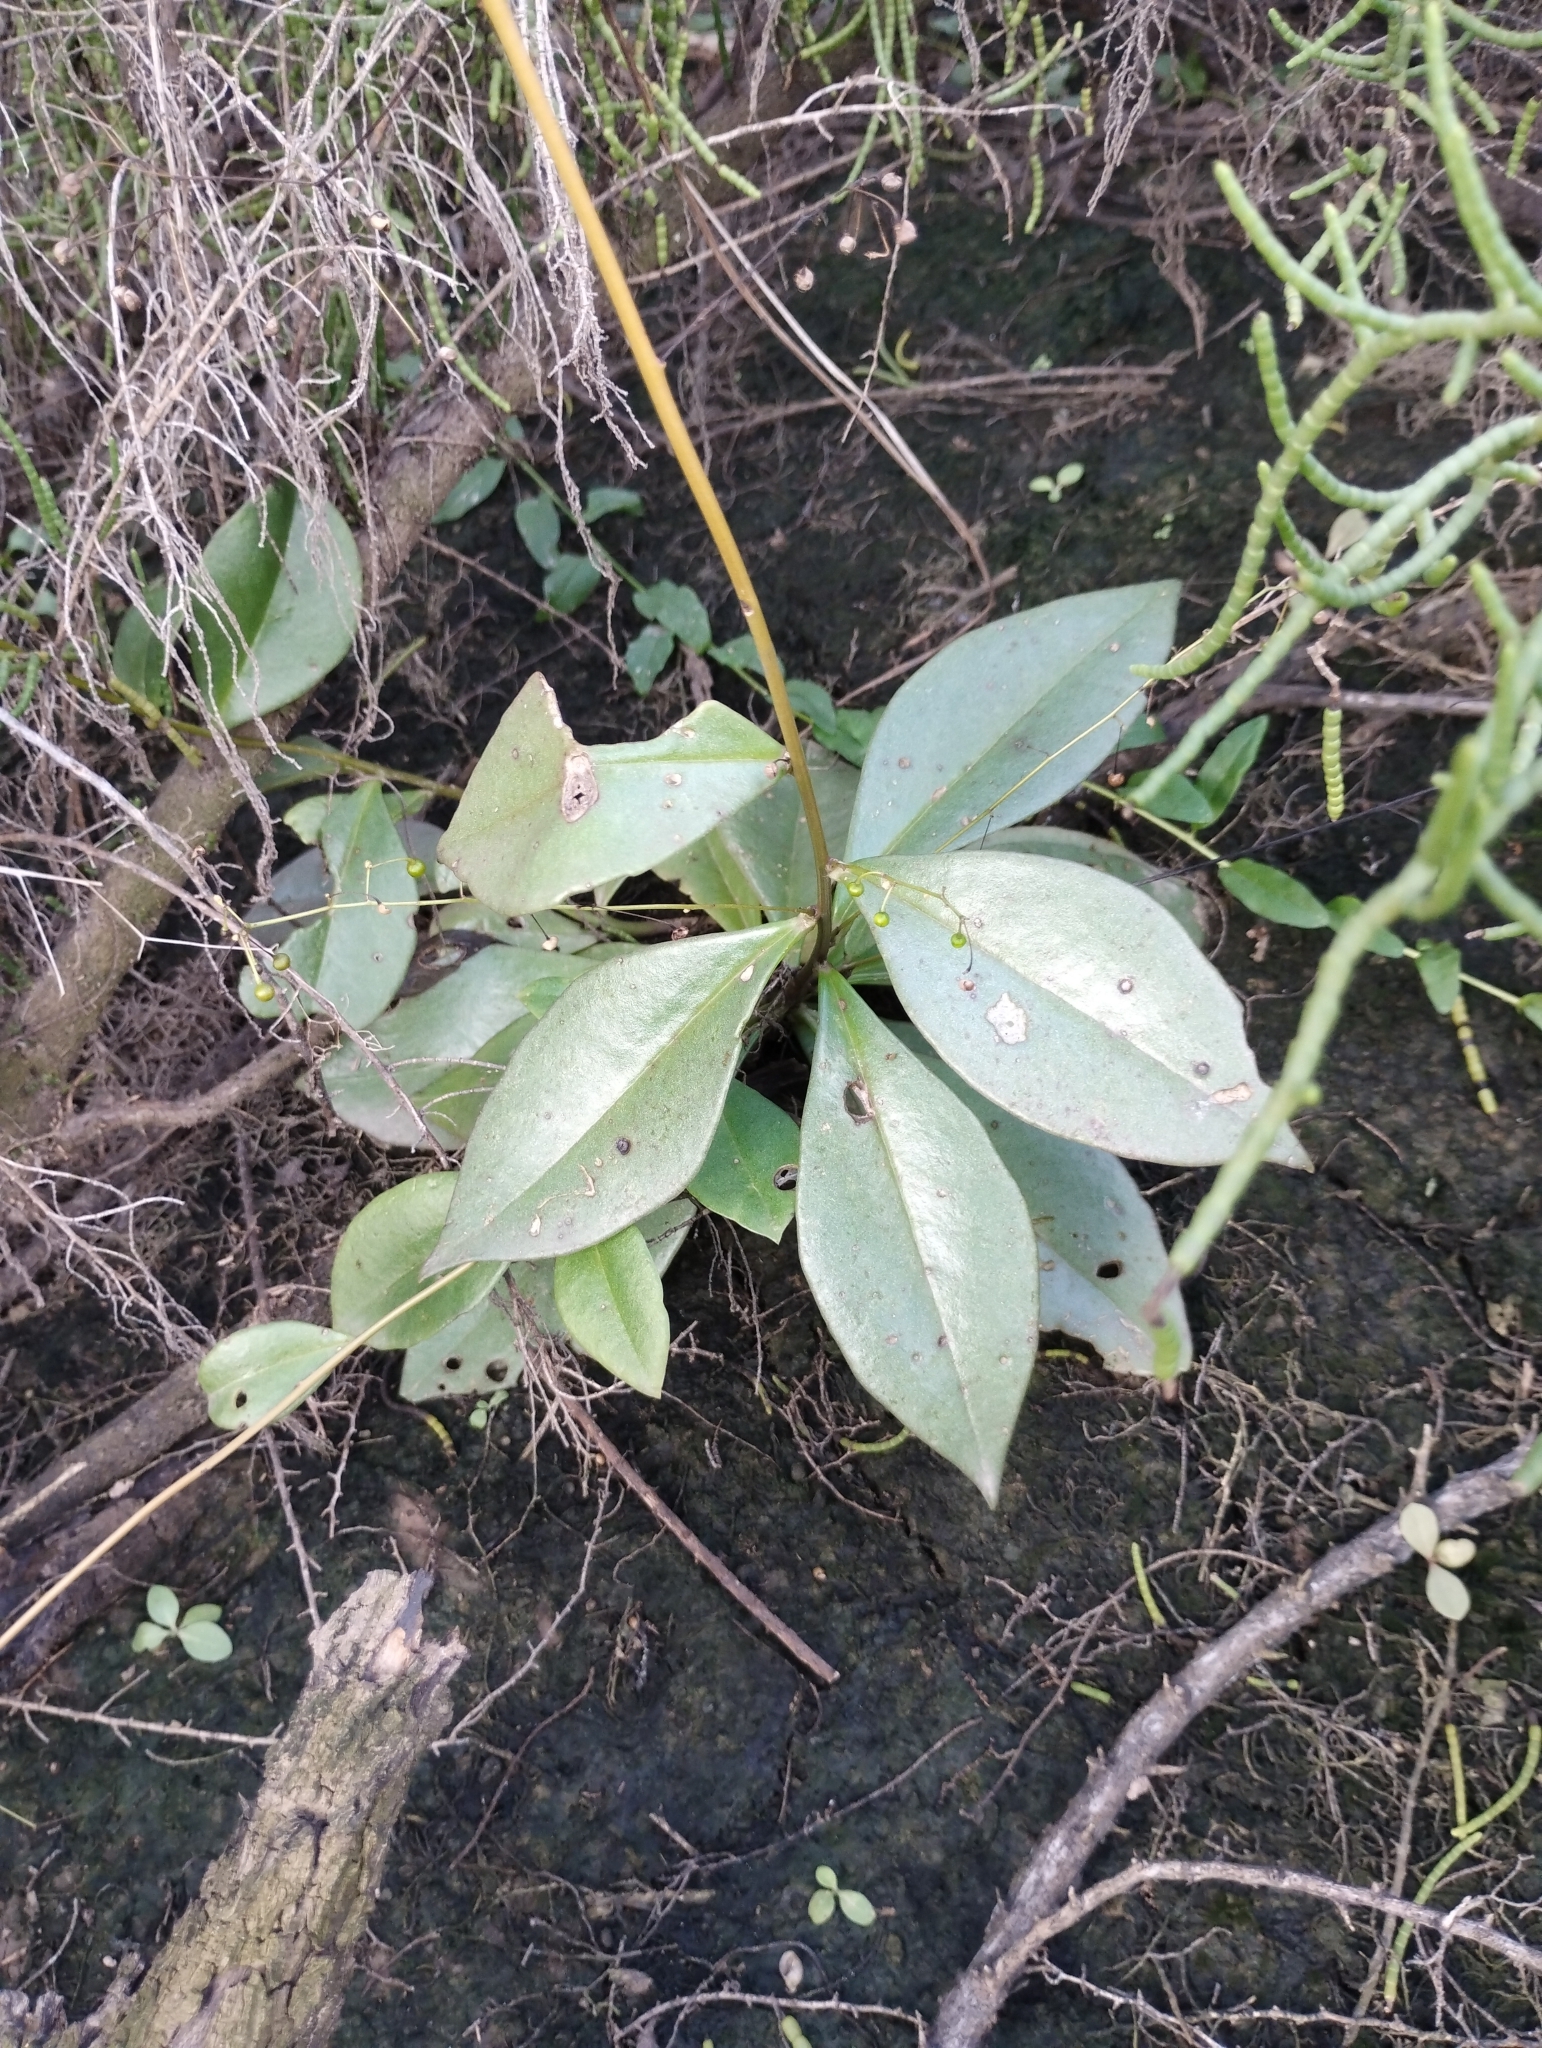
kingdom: Plantae
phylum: Tracheophyta
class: Magnoliopsida
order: Caryophyllales
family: Talinaceae
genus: Talinum
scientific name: Talinum paniculatum
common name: Jewels of opar
